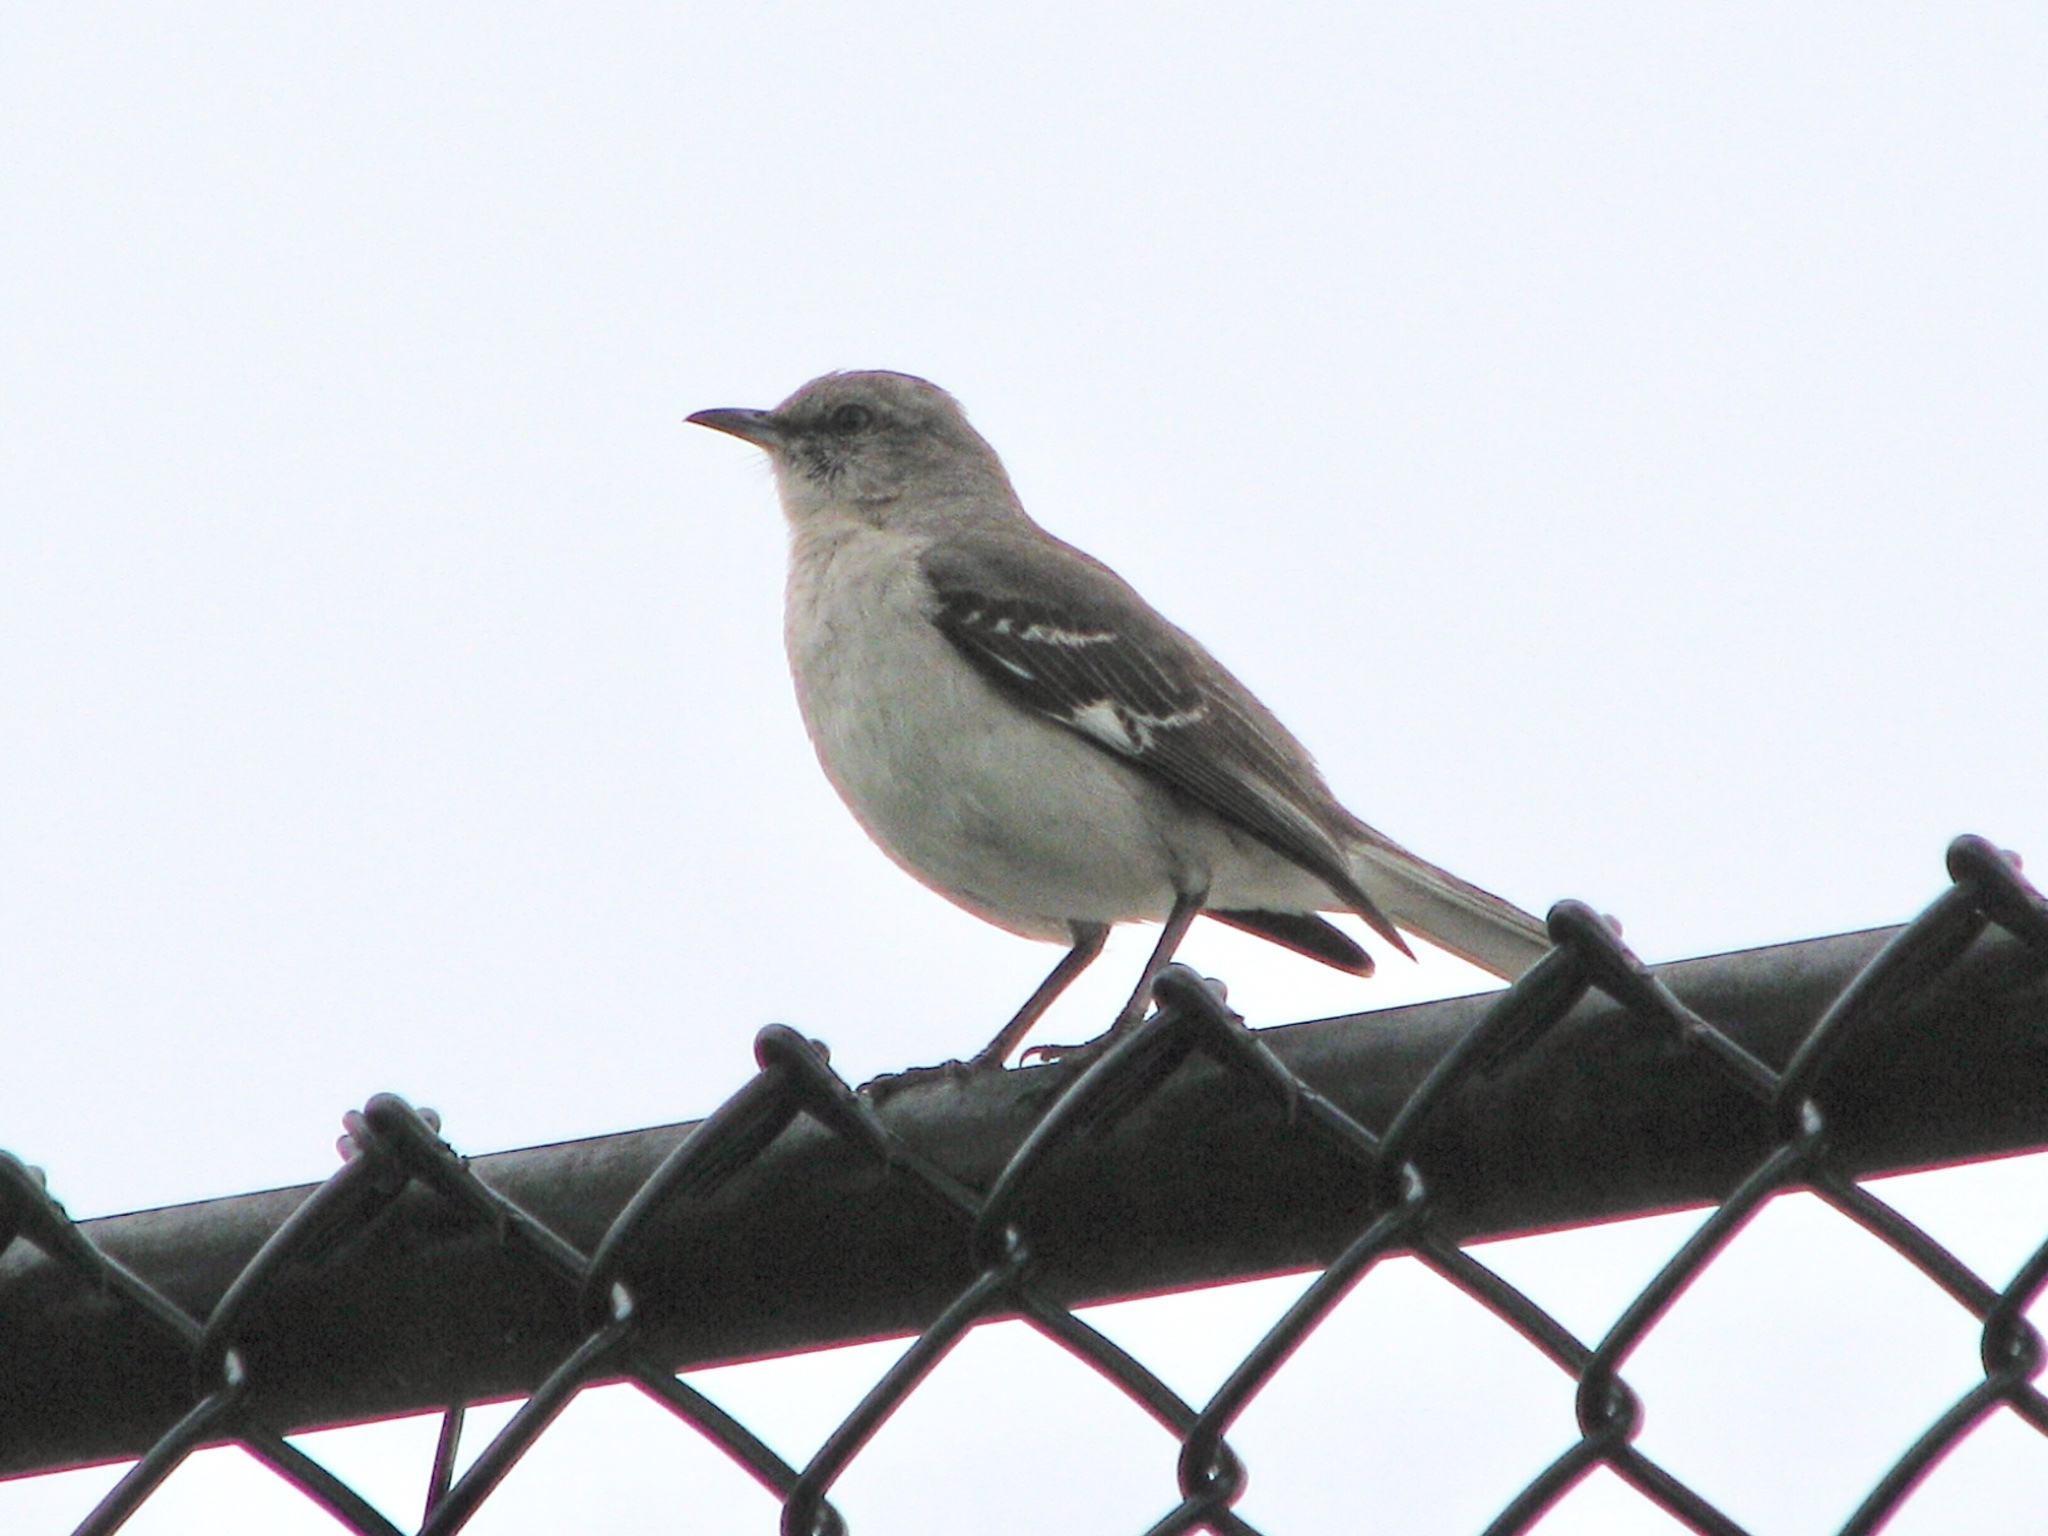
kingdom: Animalia
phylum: Chordata
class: Aves
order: Passeriformes
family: Mimidae
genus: Mimus
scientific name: Mimus polyglottos
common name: Northern mockingbird
